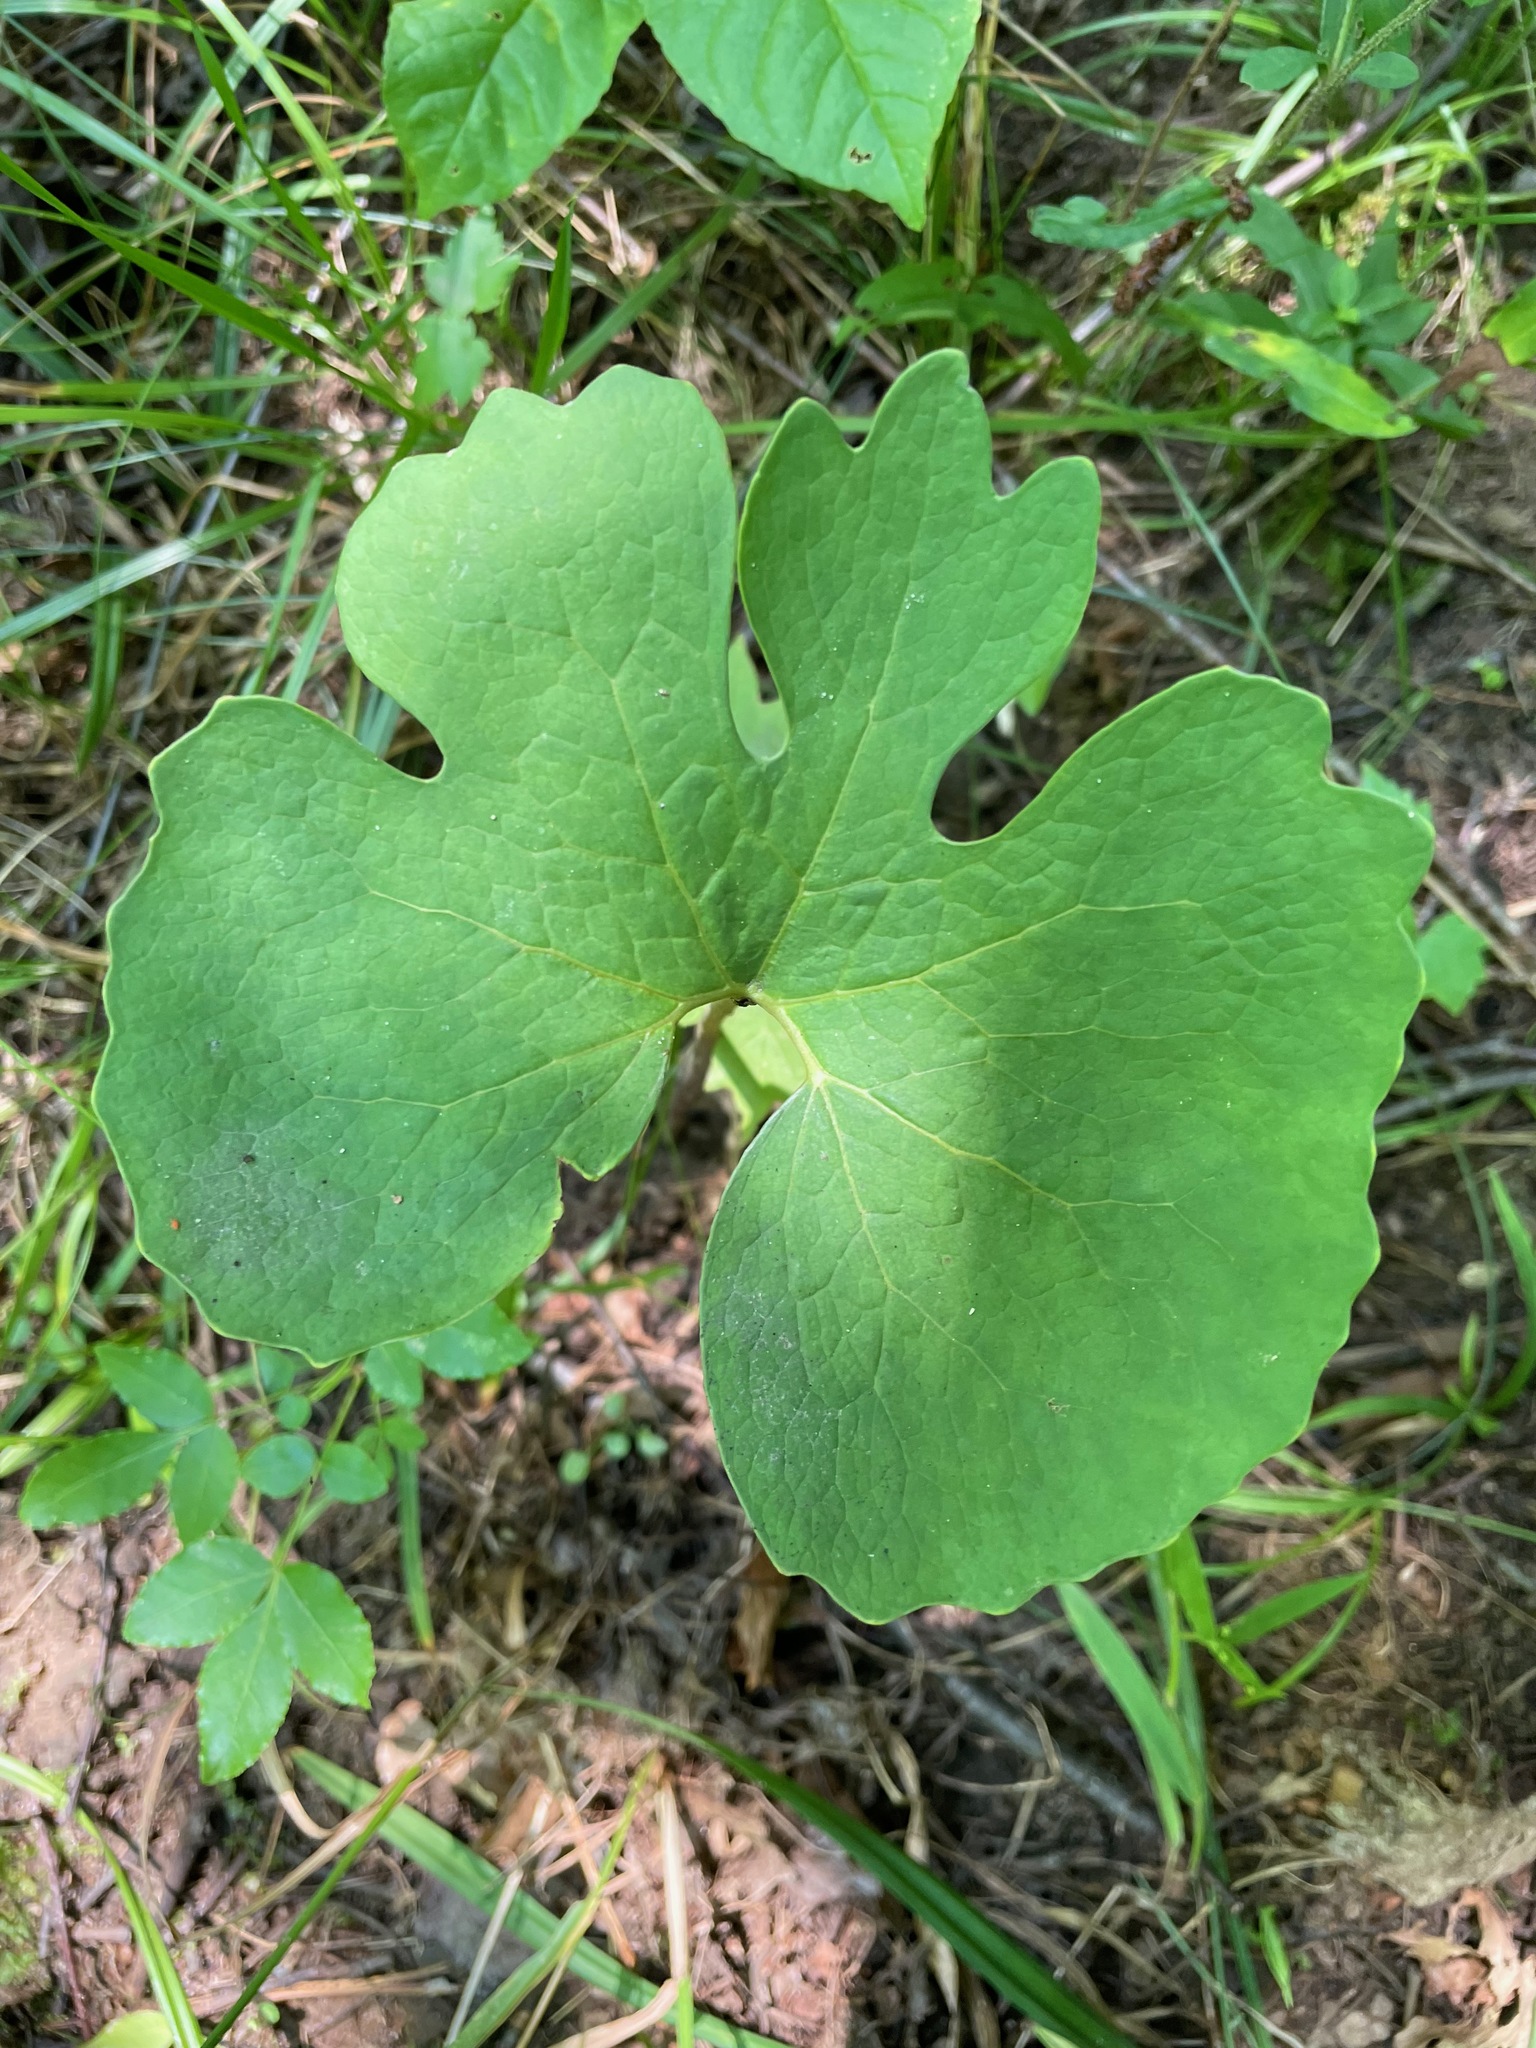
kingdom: Plantae
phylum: Tracheophyta
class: Magnoliopsida
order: Ranunculales
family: Papaveraceae
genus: Sanguinaria
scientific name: Sanguinaria canadensis
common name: Bloodroot
